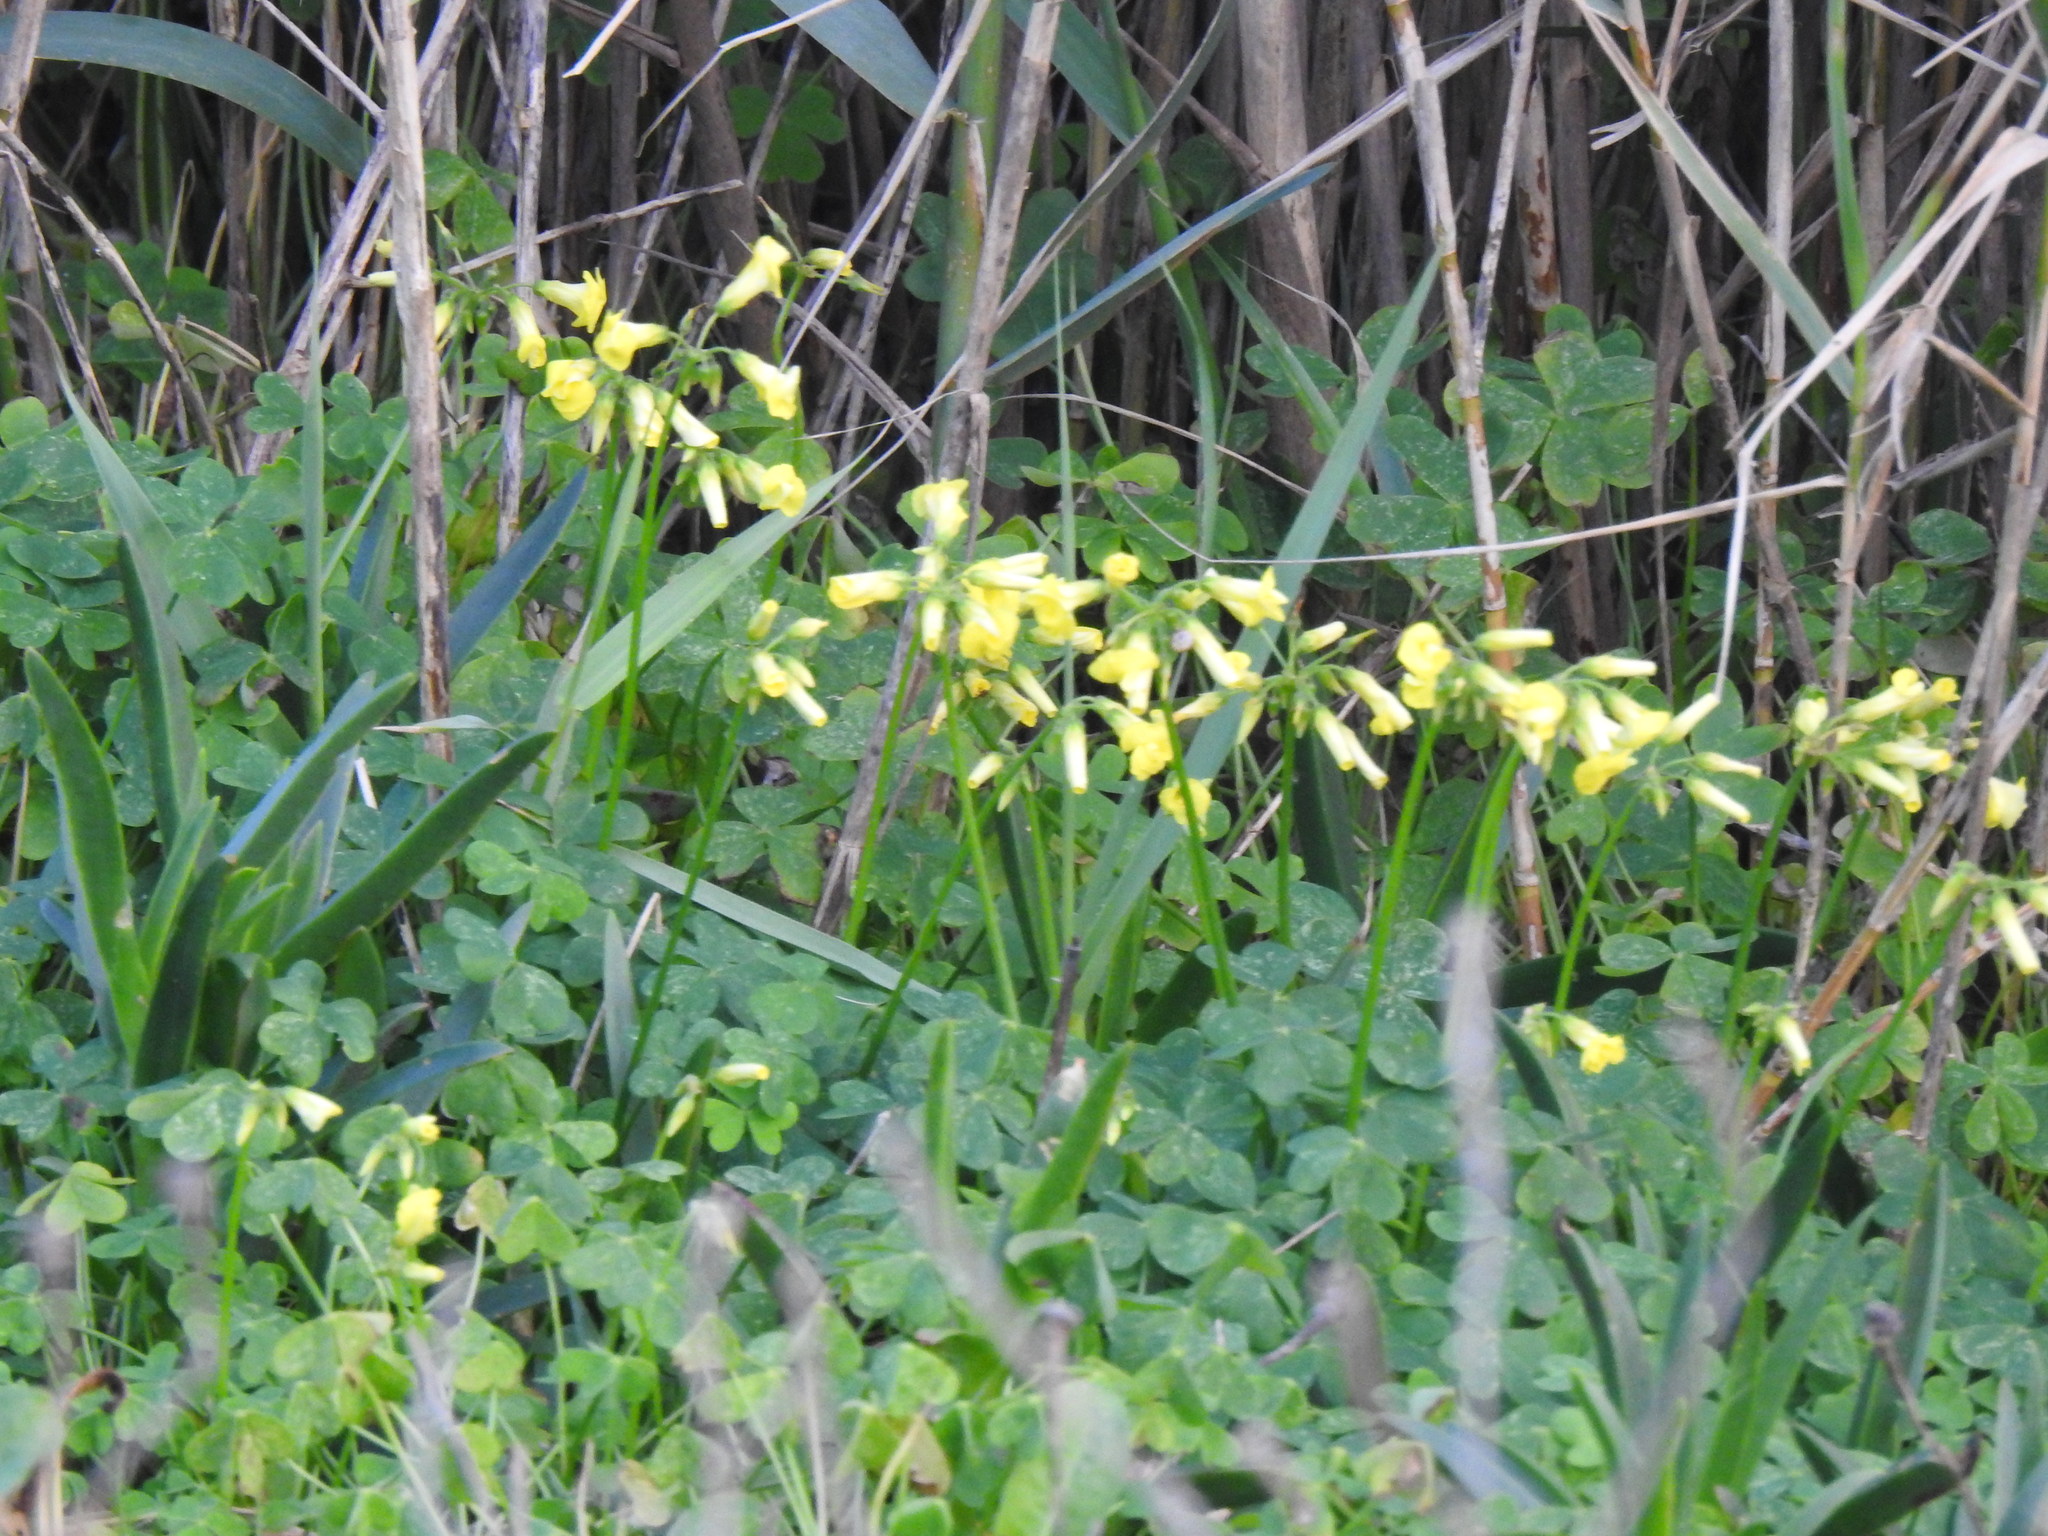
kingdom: Plantae
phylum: Tracheophyta
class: Magnoliopsida
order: Oxalidales
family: Oxalidaceae
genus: Oxalis
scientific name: Oxalis pes-caprae
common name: Bermuda-buttercup
